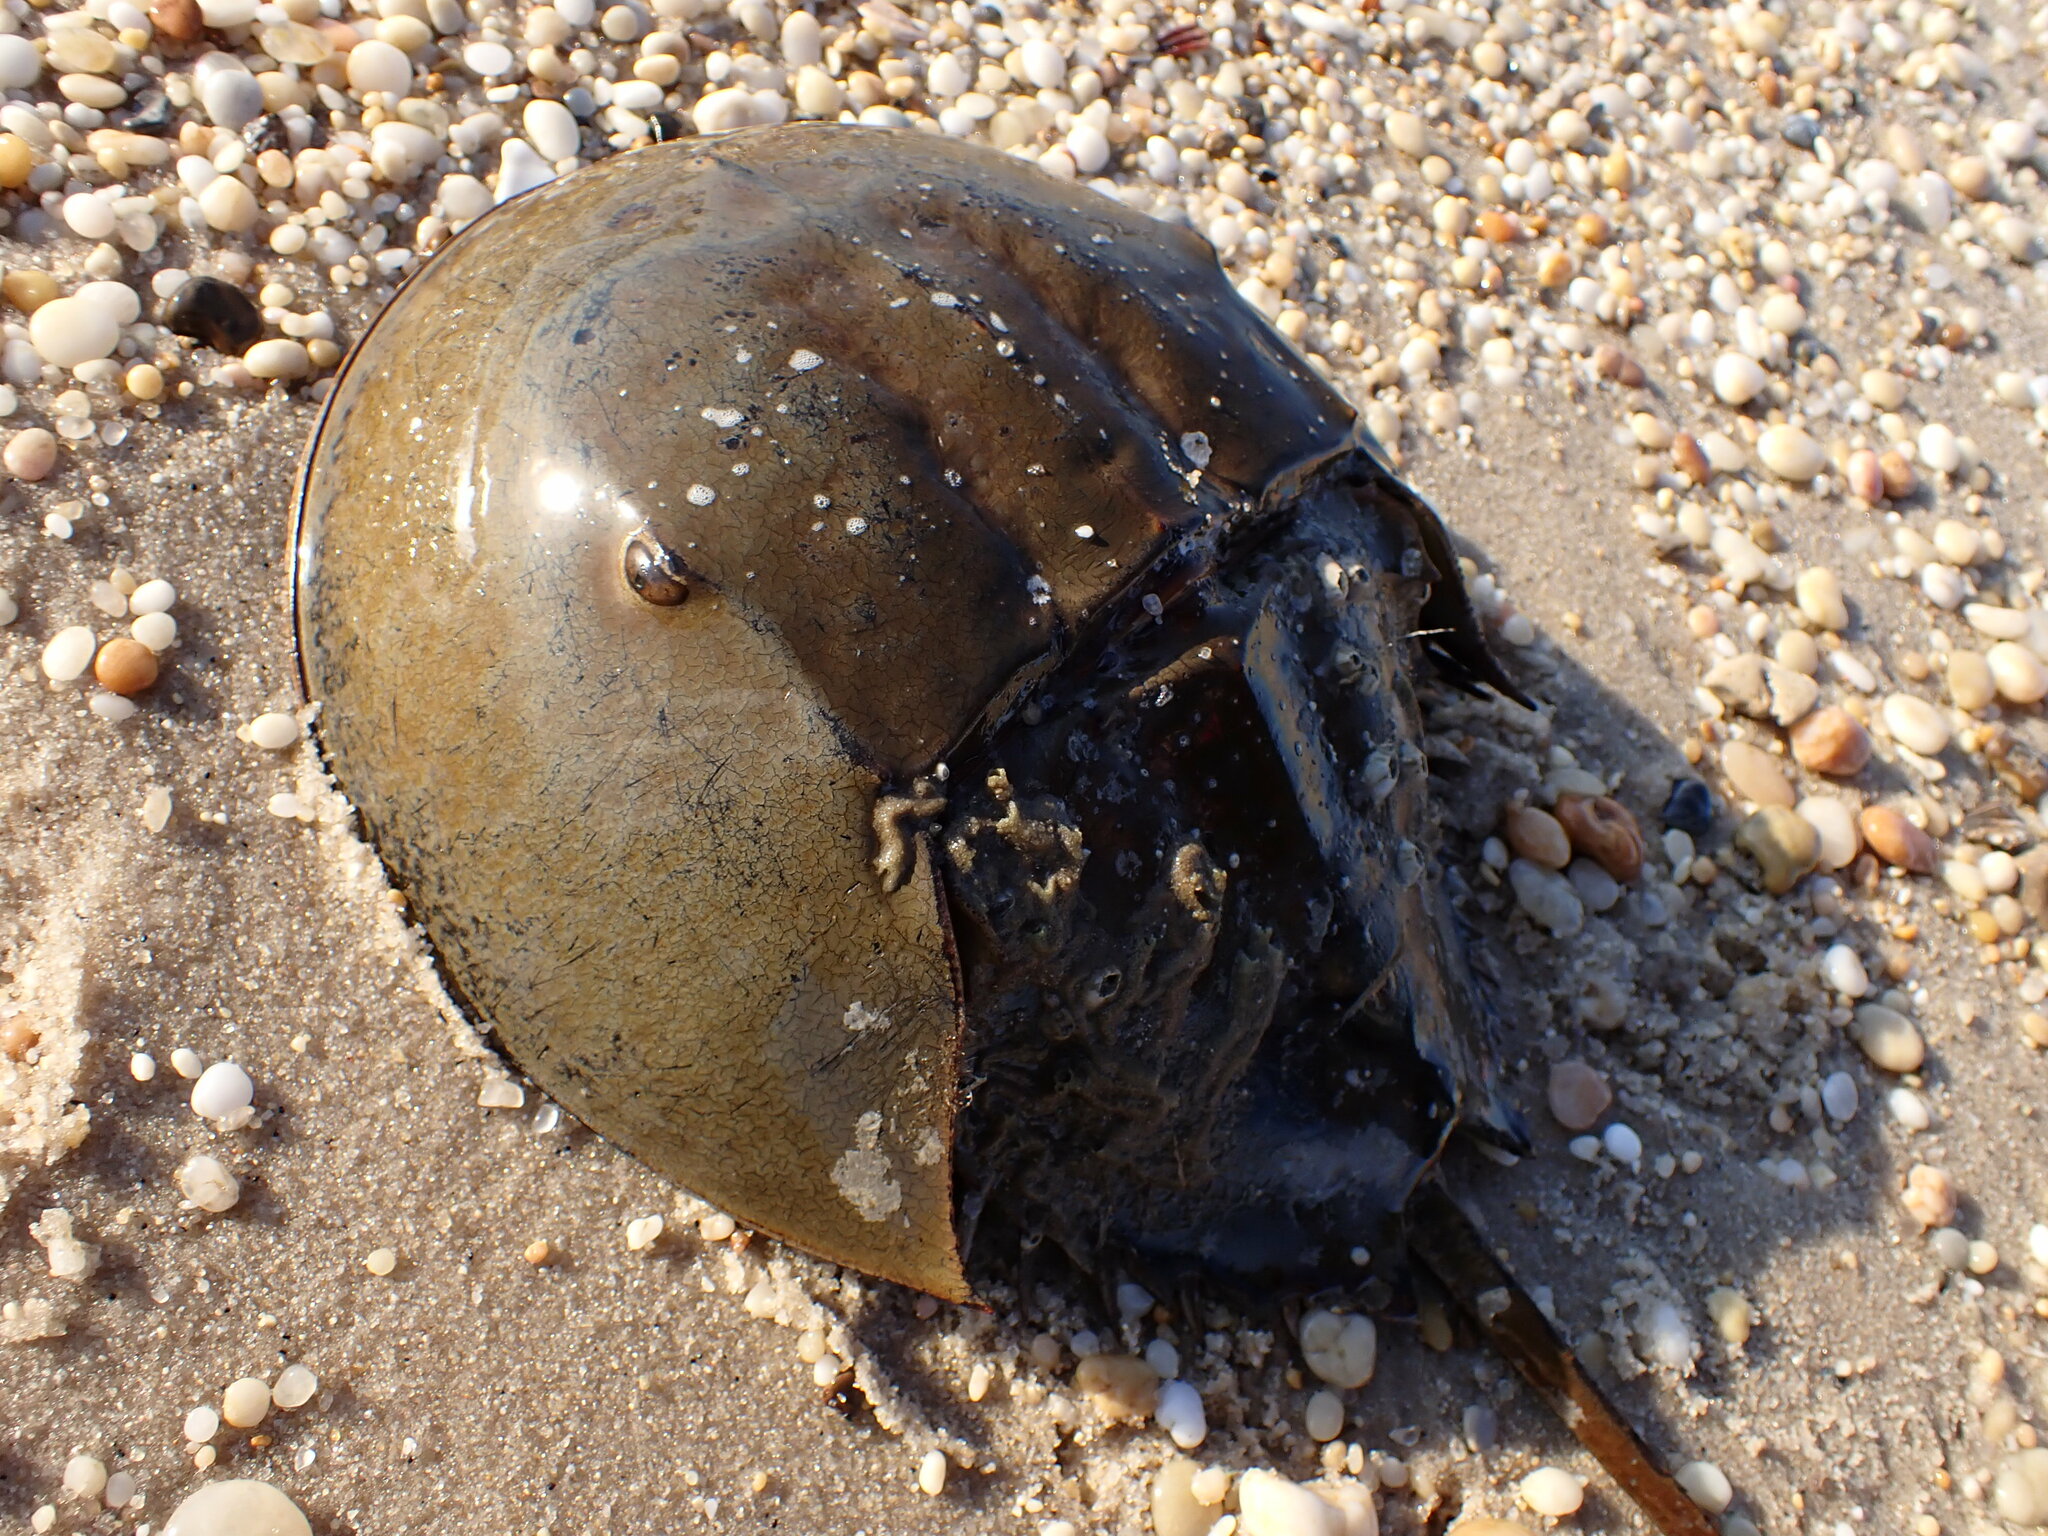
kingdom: Animalia
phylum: Arthropoda
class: Merostomata
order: Xiphosurida
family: Limulidae
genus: Limulus
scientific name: Limulus polyphemus
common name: Horseshoe crab
